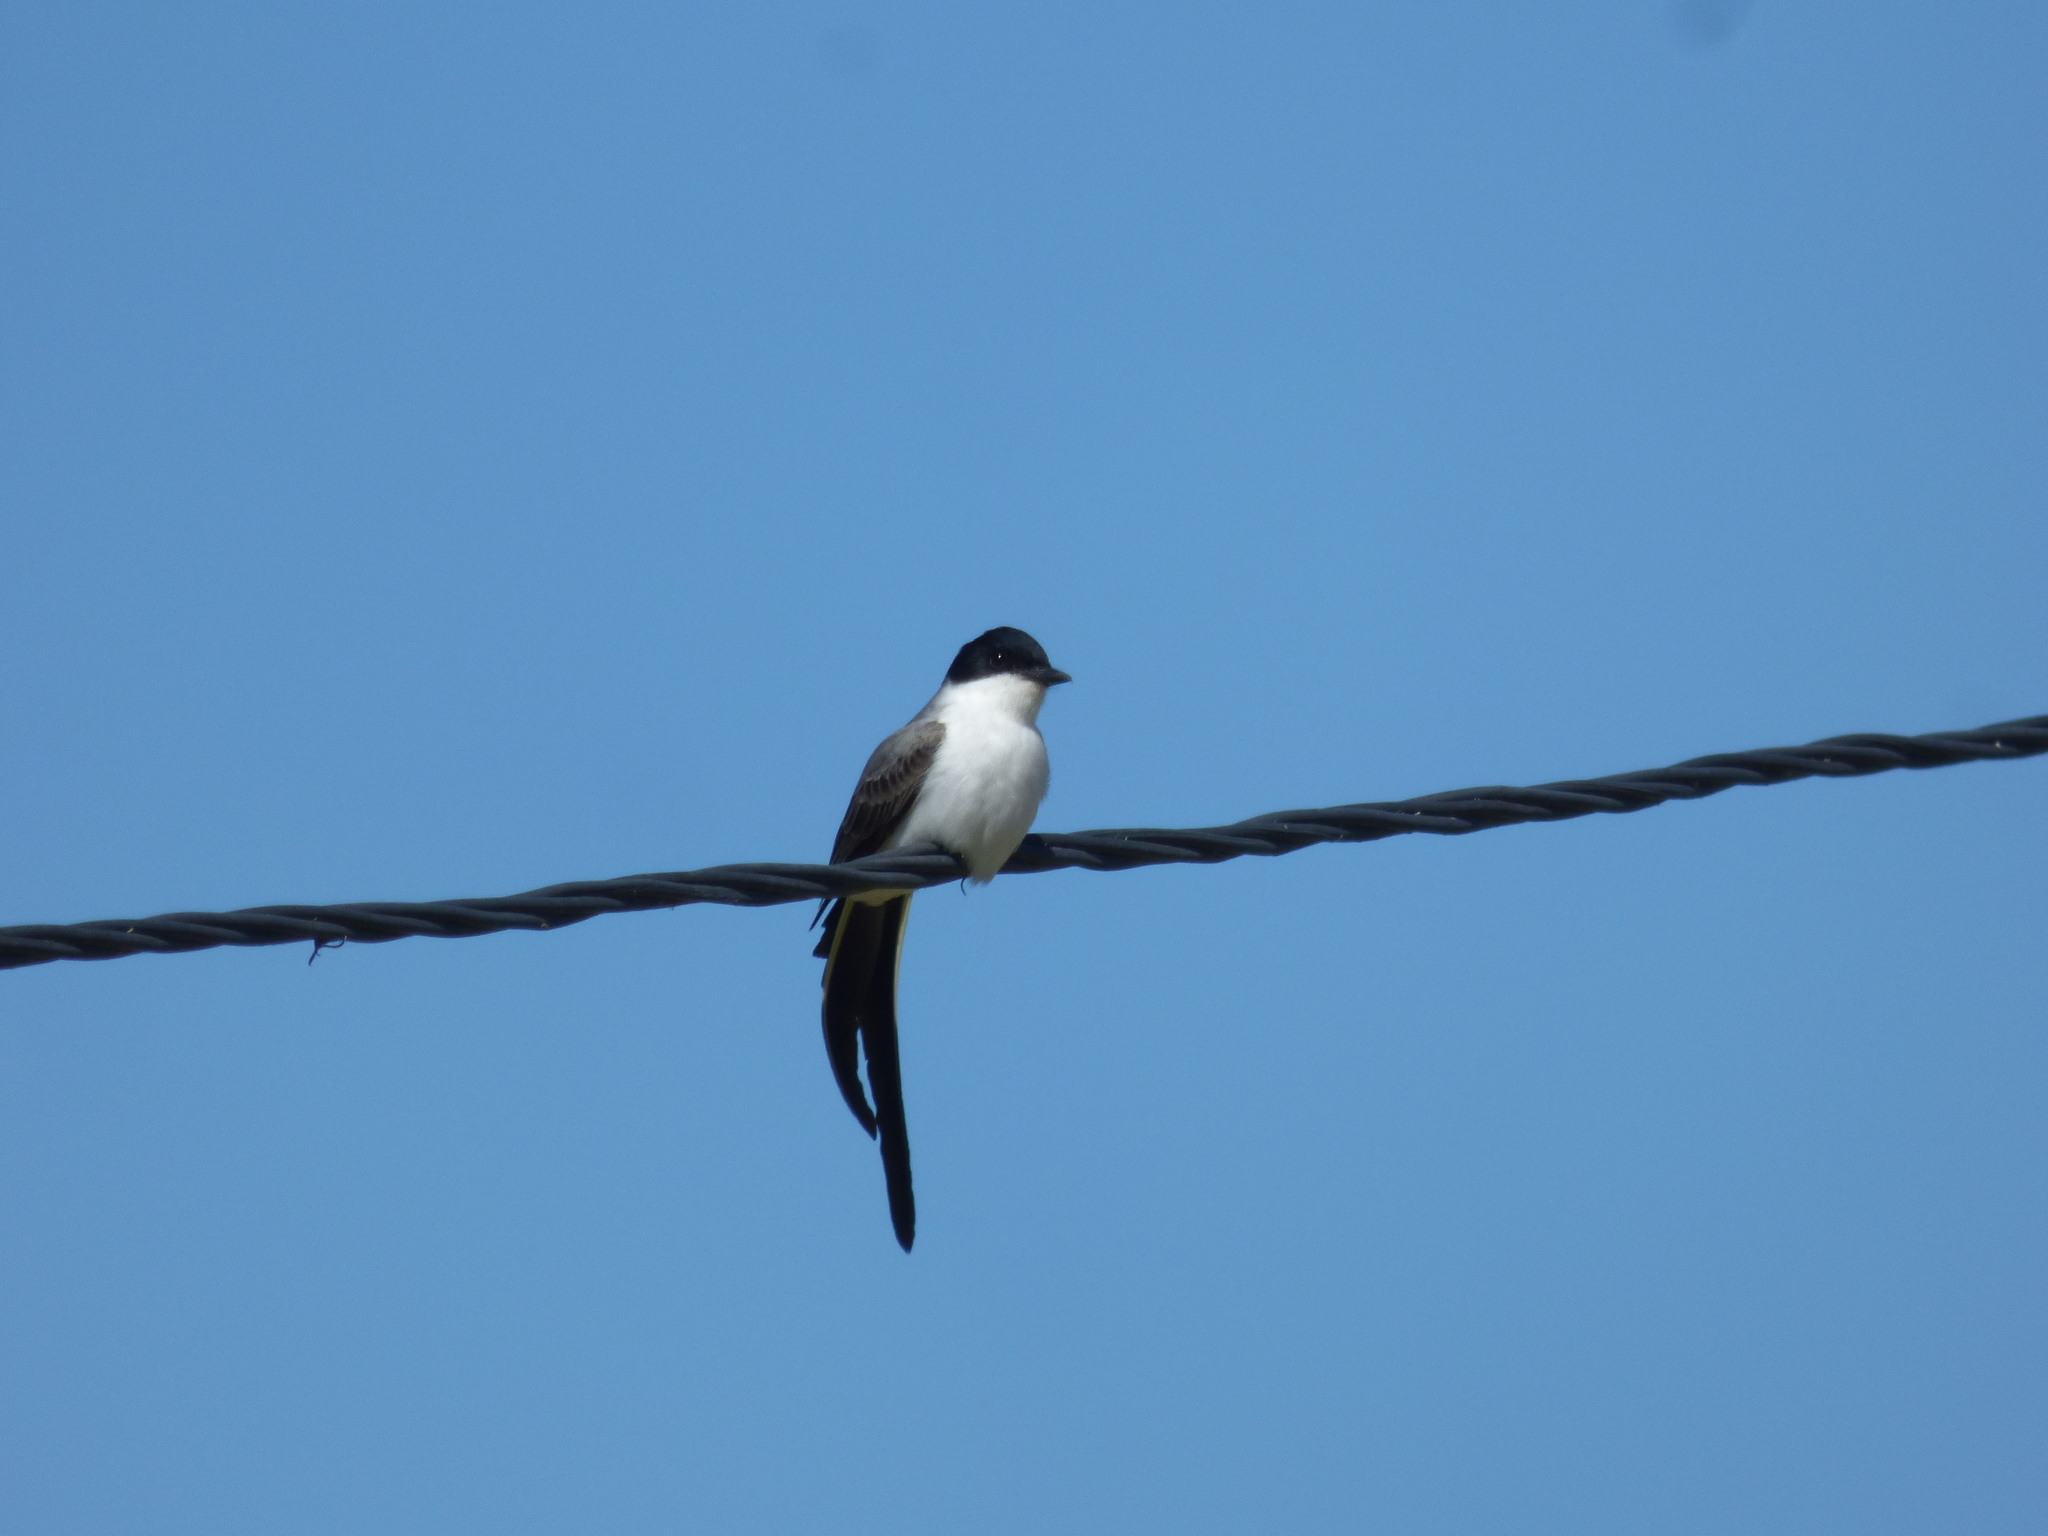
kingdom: Animalia
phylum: Chordata
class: Aves
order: Passeriformes
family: Tyrannidae
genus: Tyrannus
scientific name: Tyrannus savana
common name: Fork-tailed flycatcher
